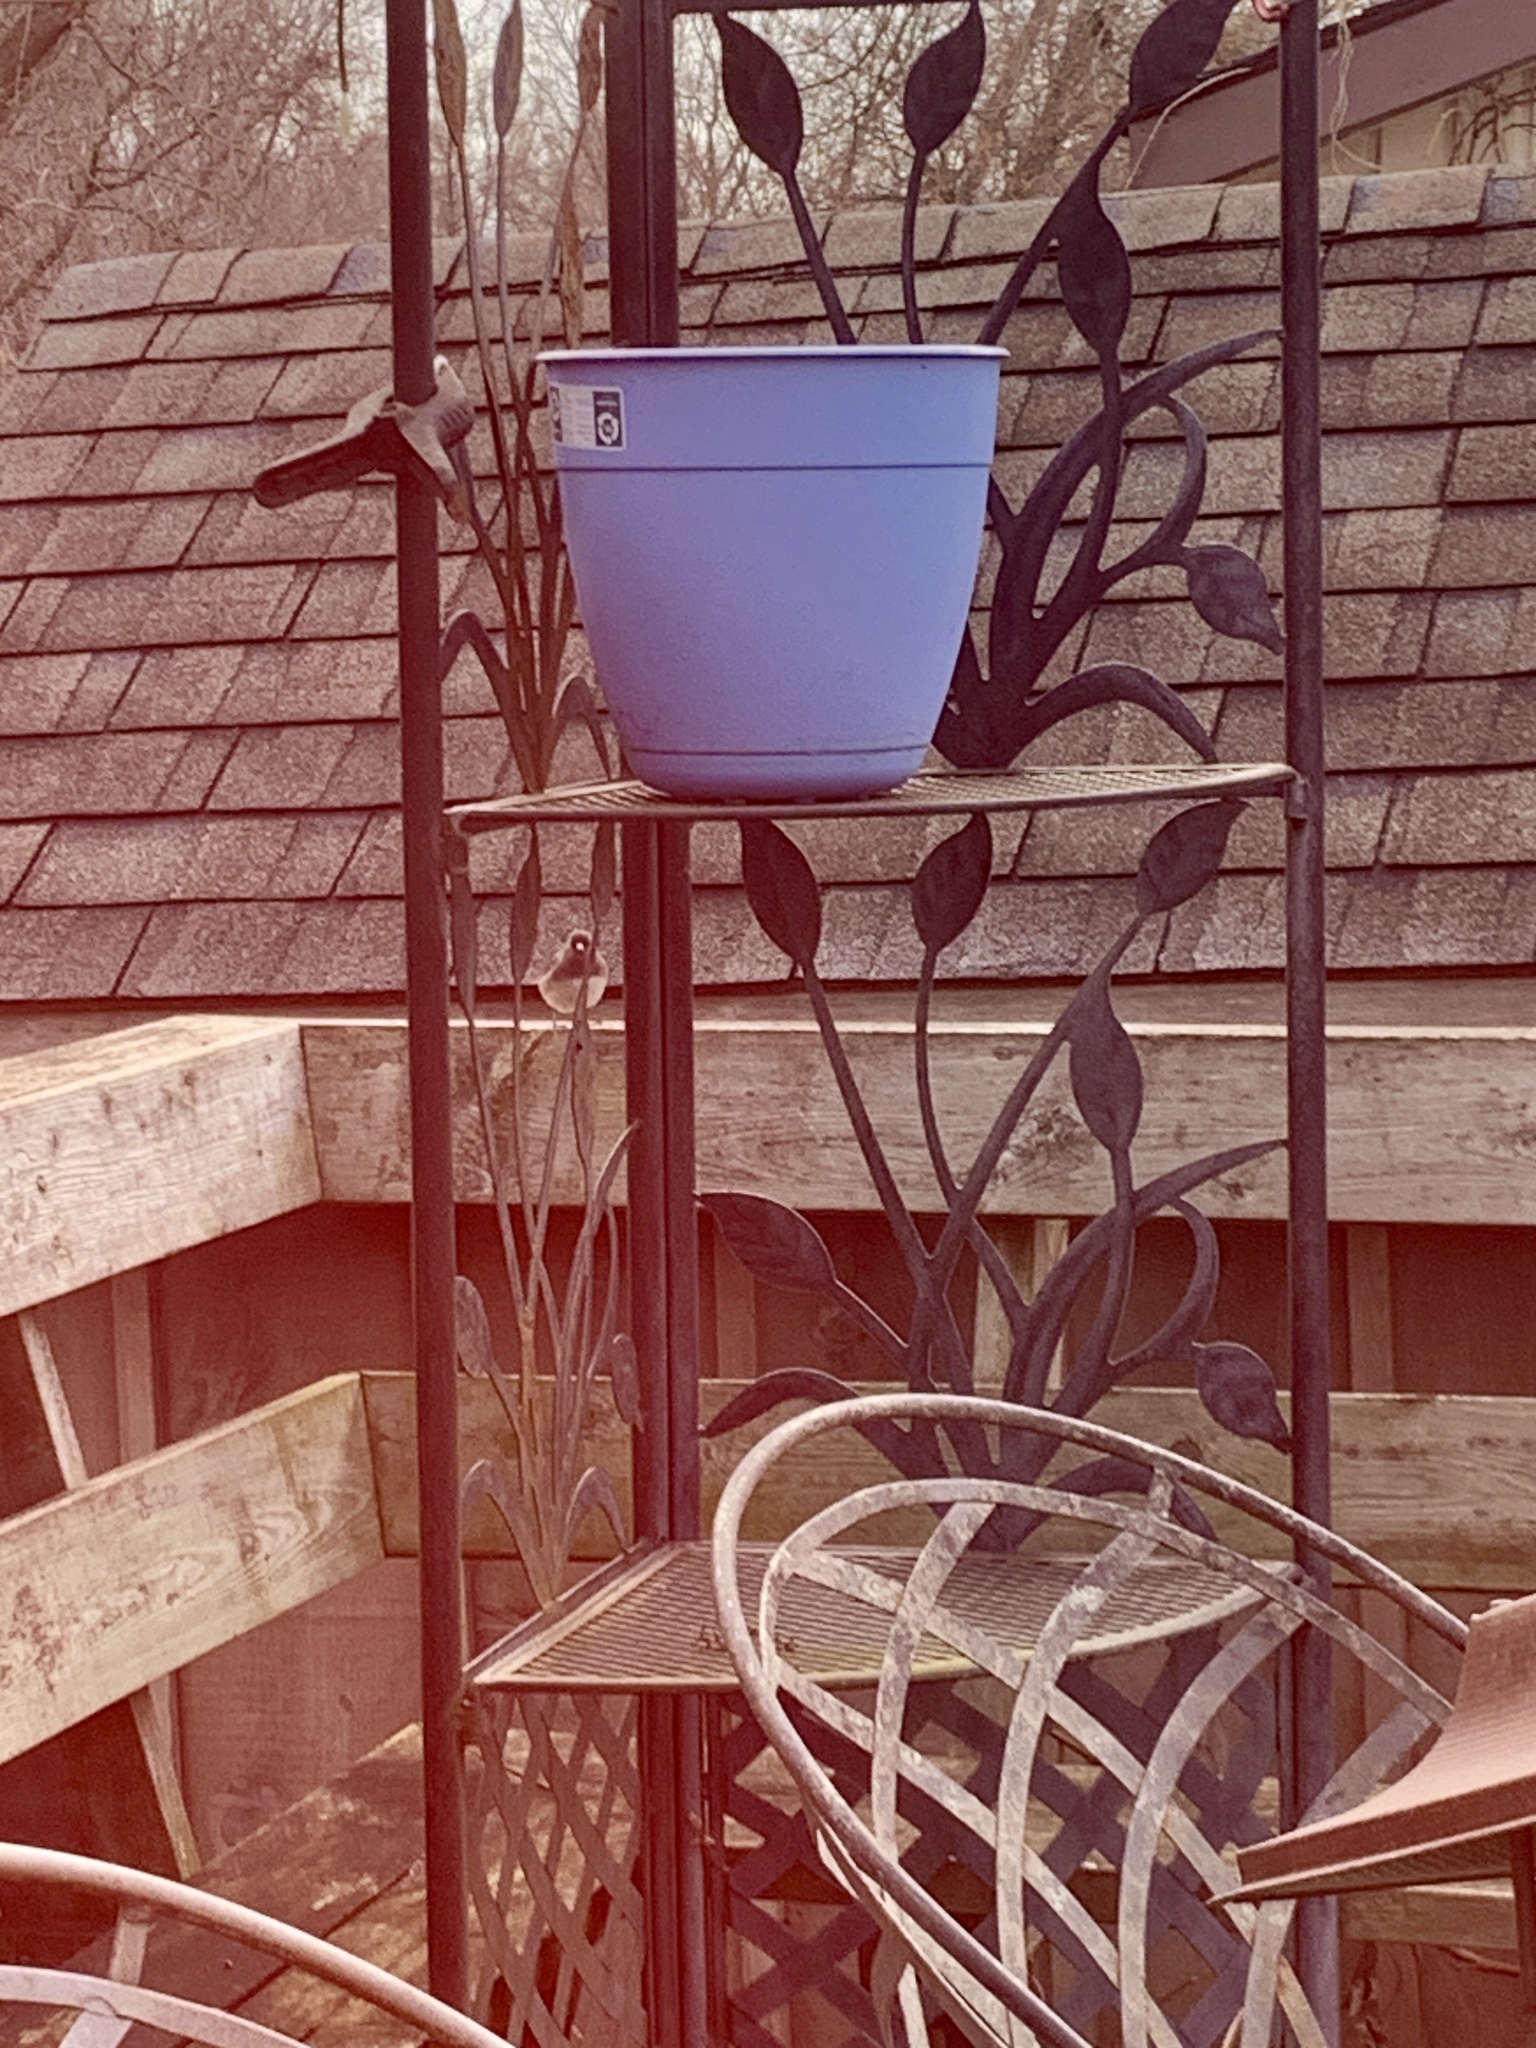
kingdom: Animalia
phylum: Chordata
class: Aves
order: Passeriformes
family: Passerellidae
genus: Junco
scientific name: Junco hyemalis
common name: Dark-eyed junco
